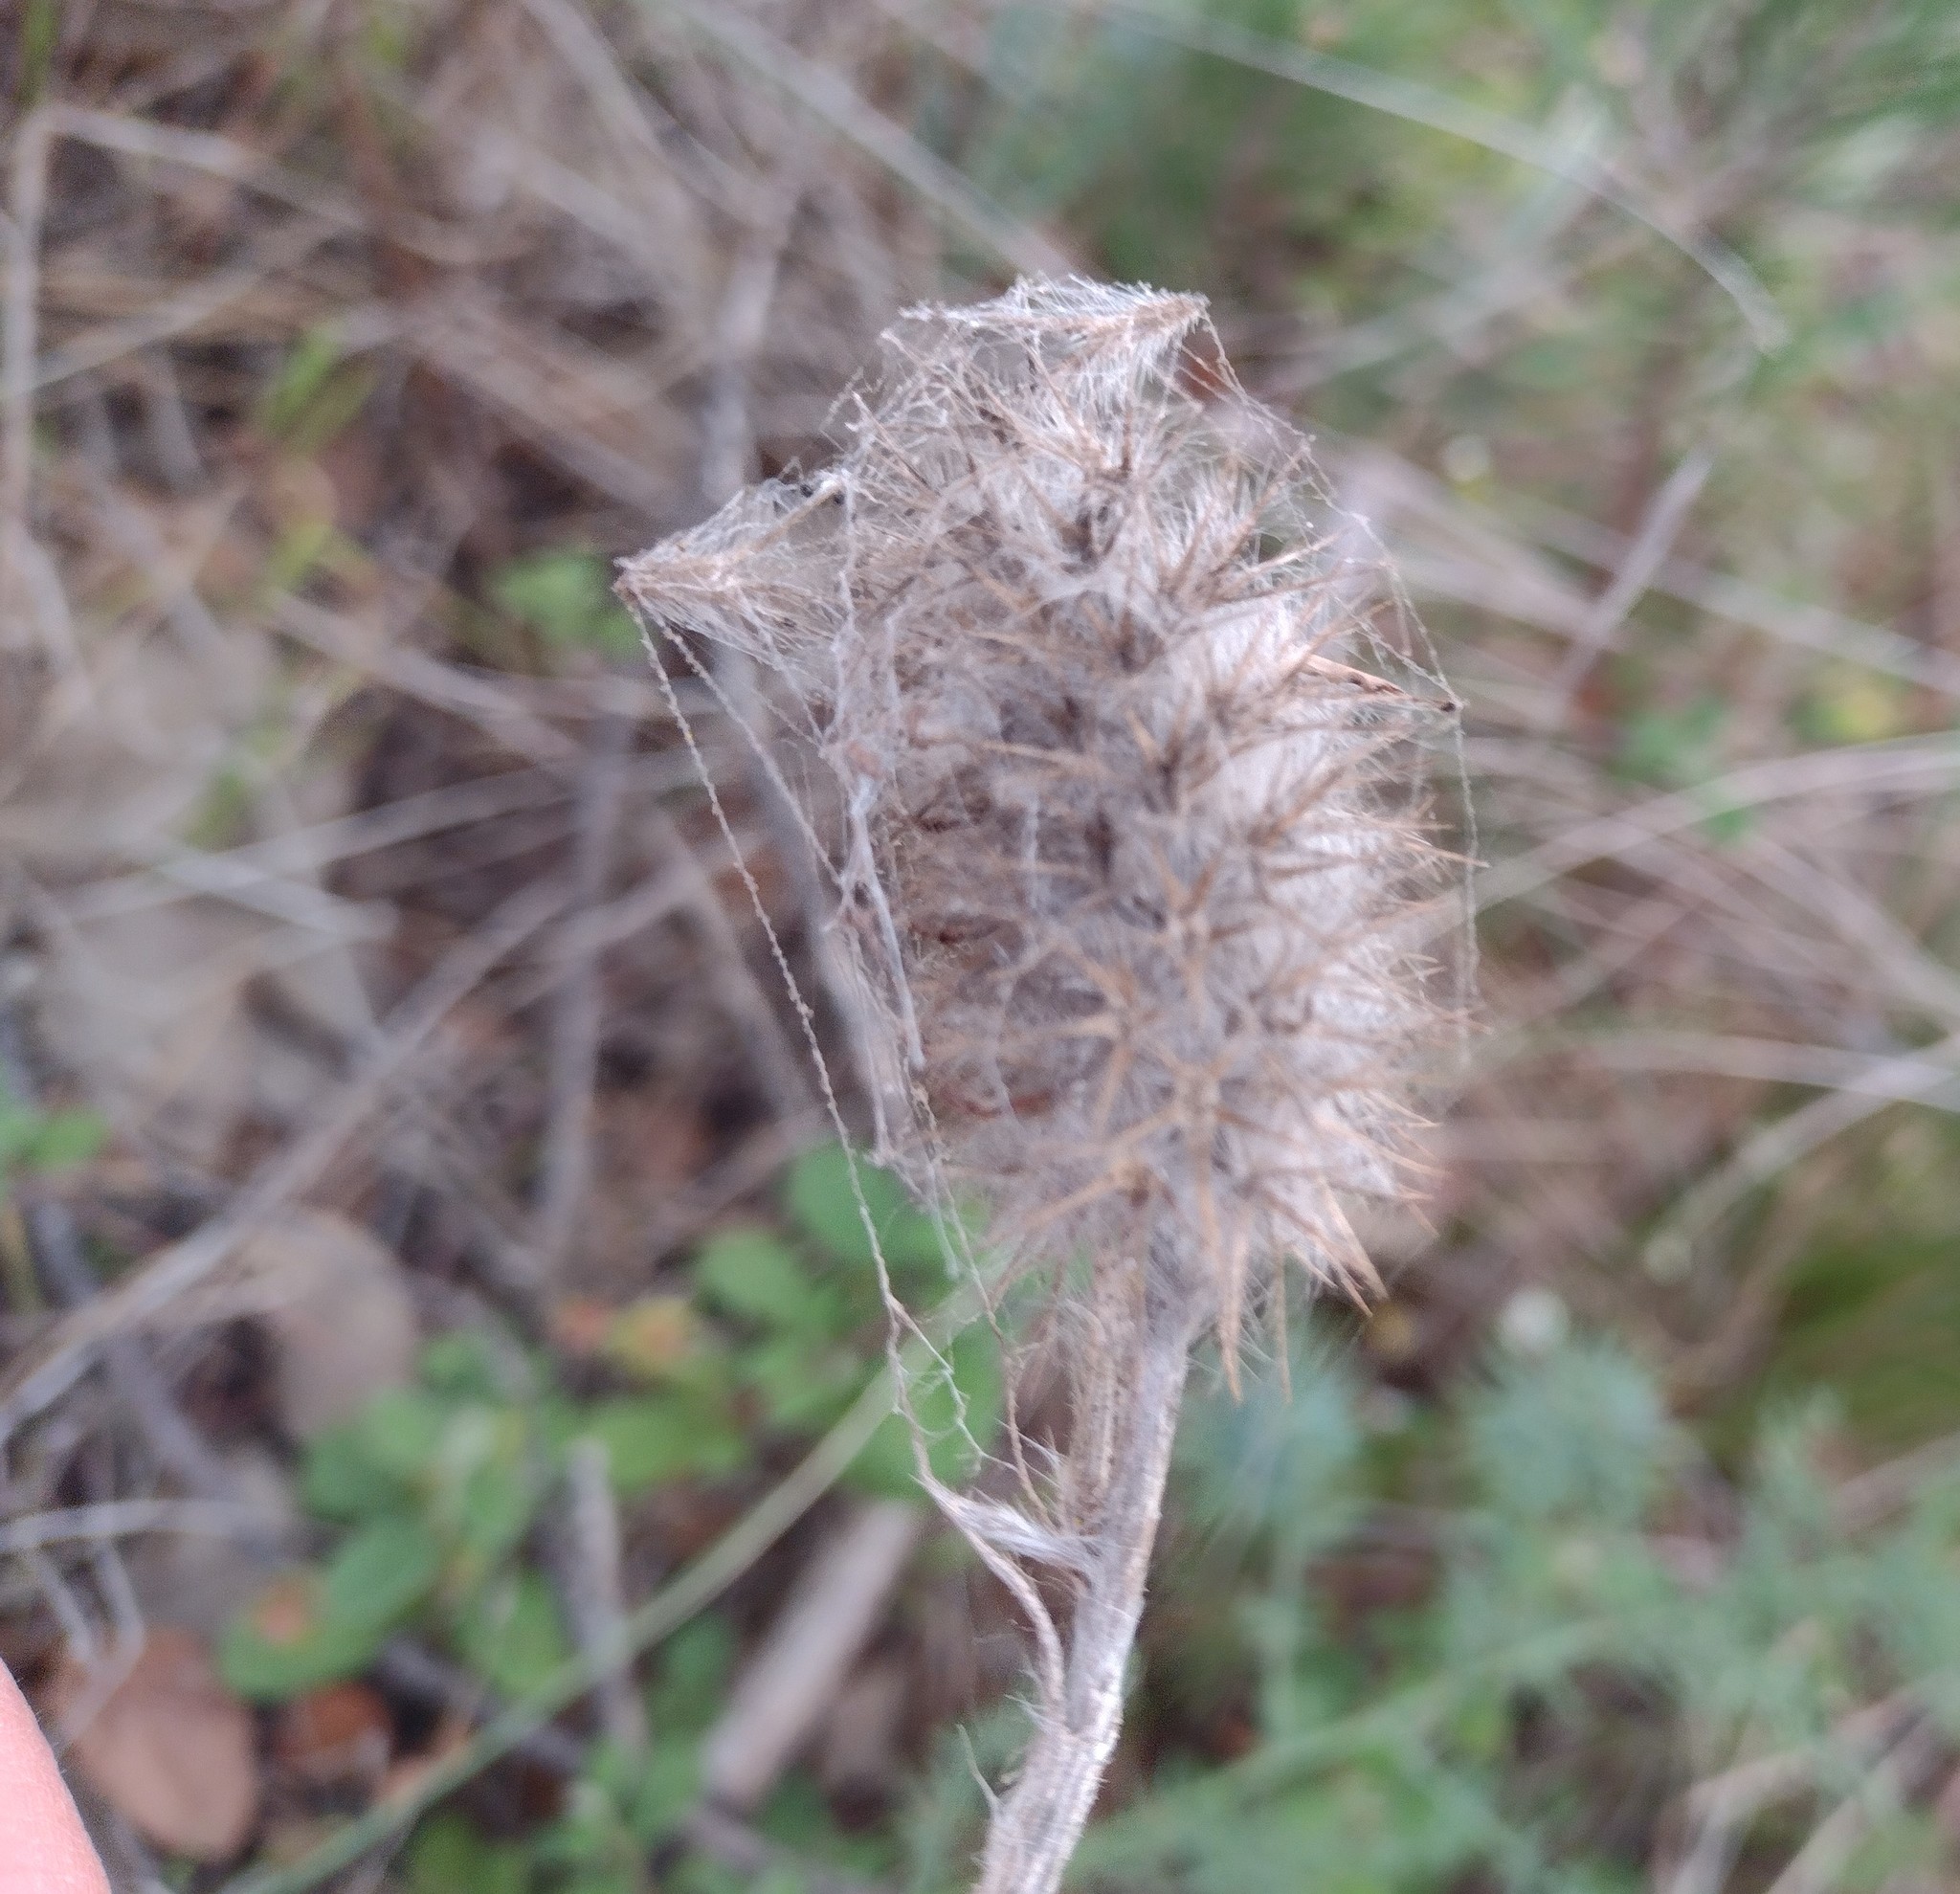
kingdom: Plantae
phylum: Tracheophyta
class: Magnoliopsida
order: Fabales
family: Fabaceae
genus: Trifolium
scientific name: Trifolium angustifolium
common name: Narrow clover
